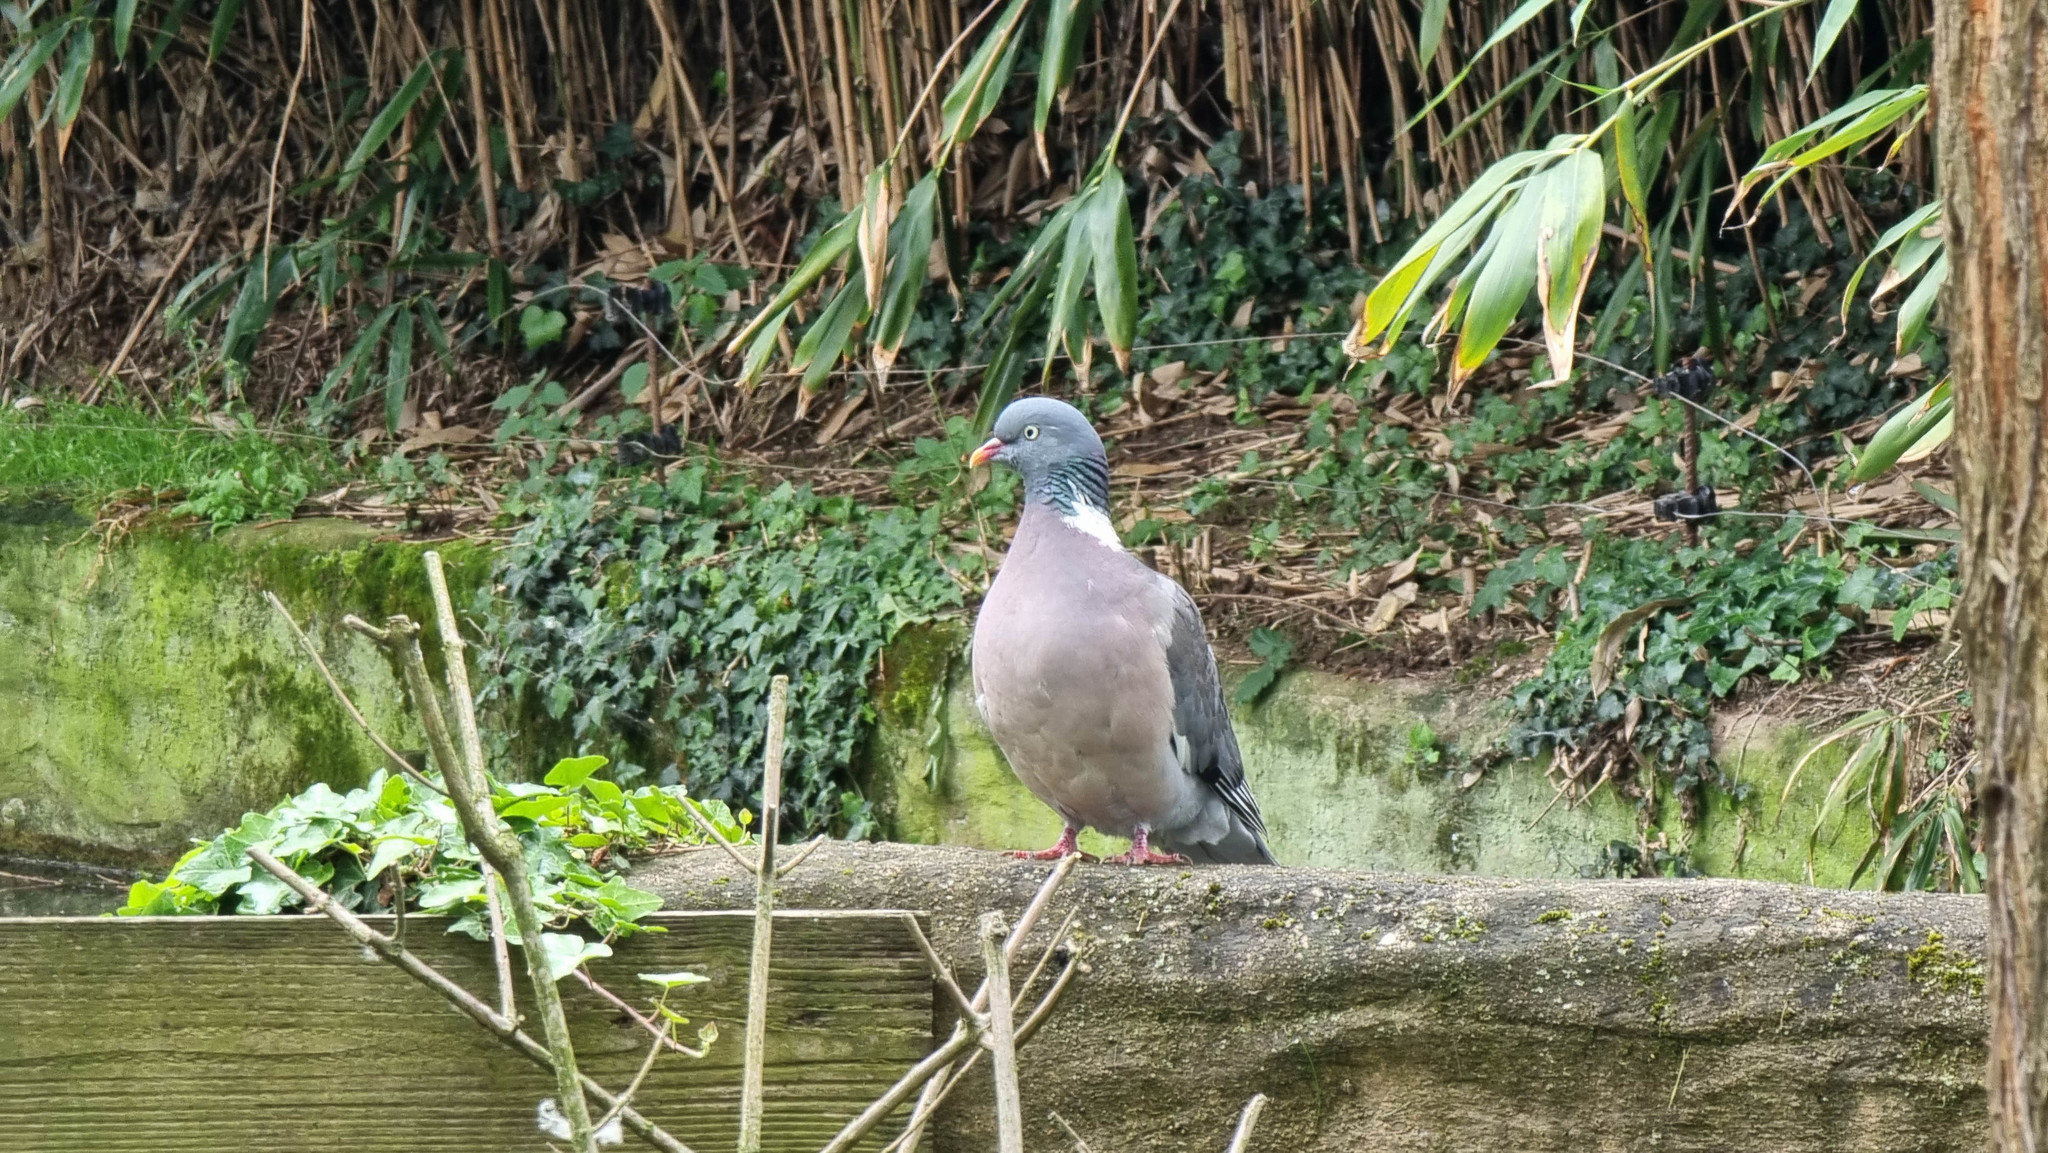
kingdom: Animalia
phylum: Chordata
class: Aves
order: Columbiformes
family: Columbidae
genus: Columba
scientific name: Columba palumbus
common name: Common wood pigeon
